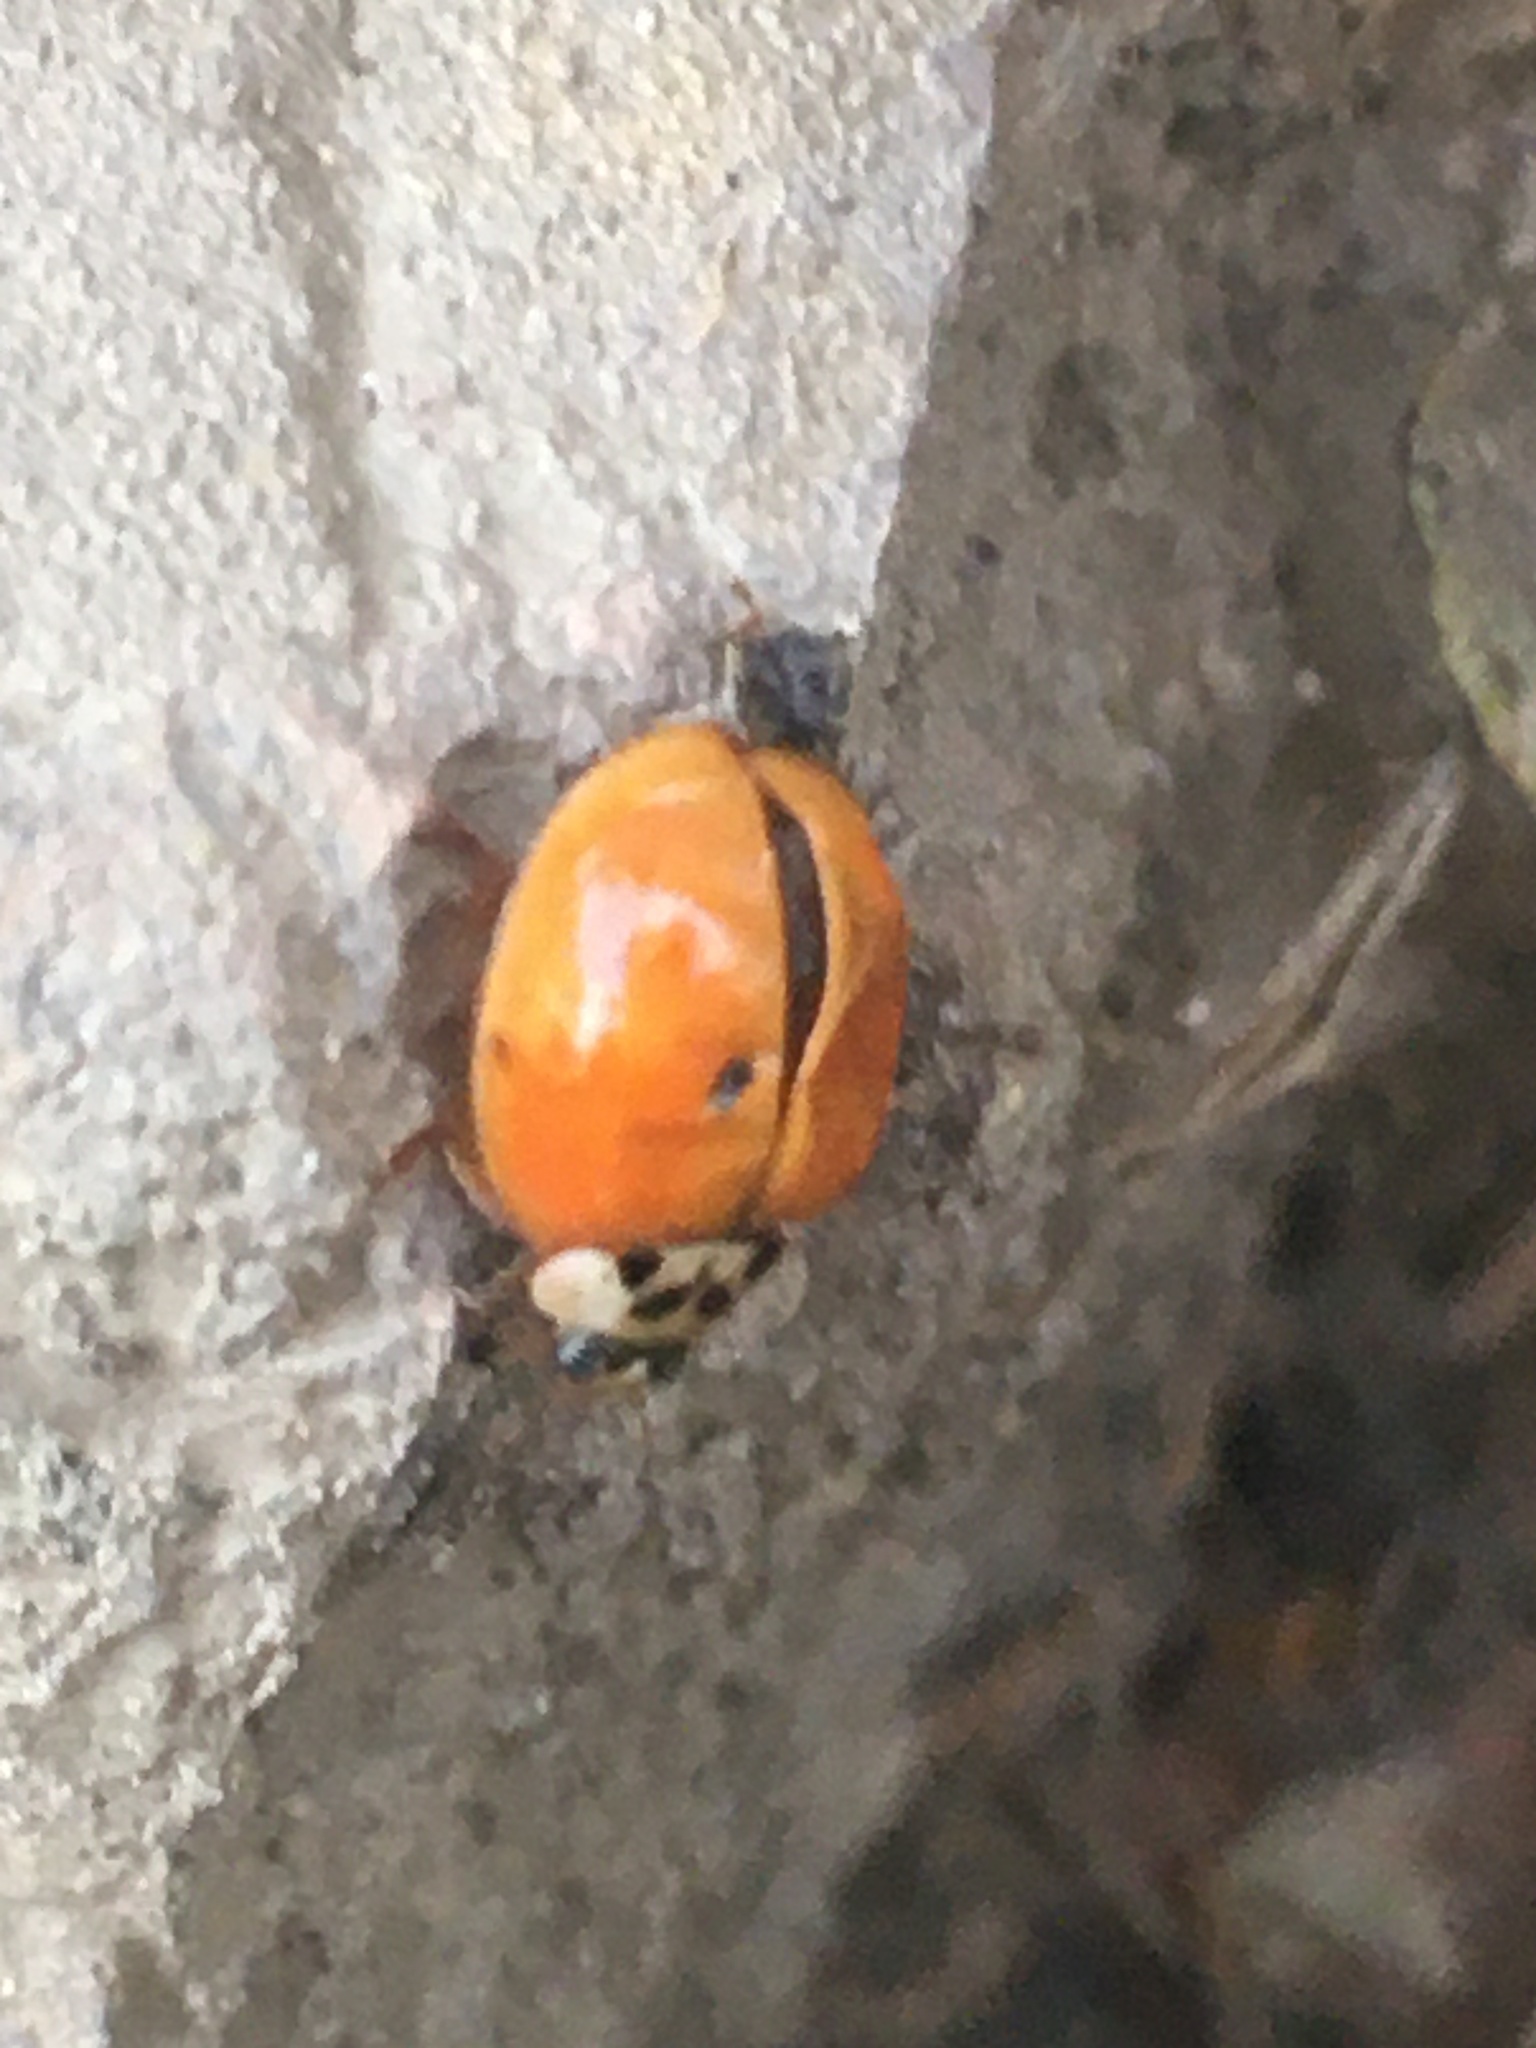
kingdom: Animalia
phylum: Arthropoda
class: Insecta
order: Coleoptera
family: Coccinellidae
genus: Harmonia
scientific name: Harmonia axyridis
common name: Harlequin ladybird
